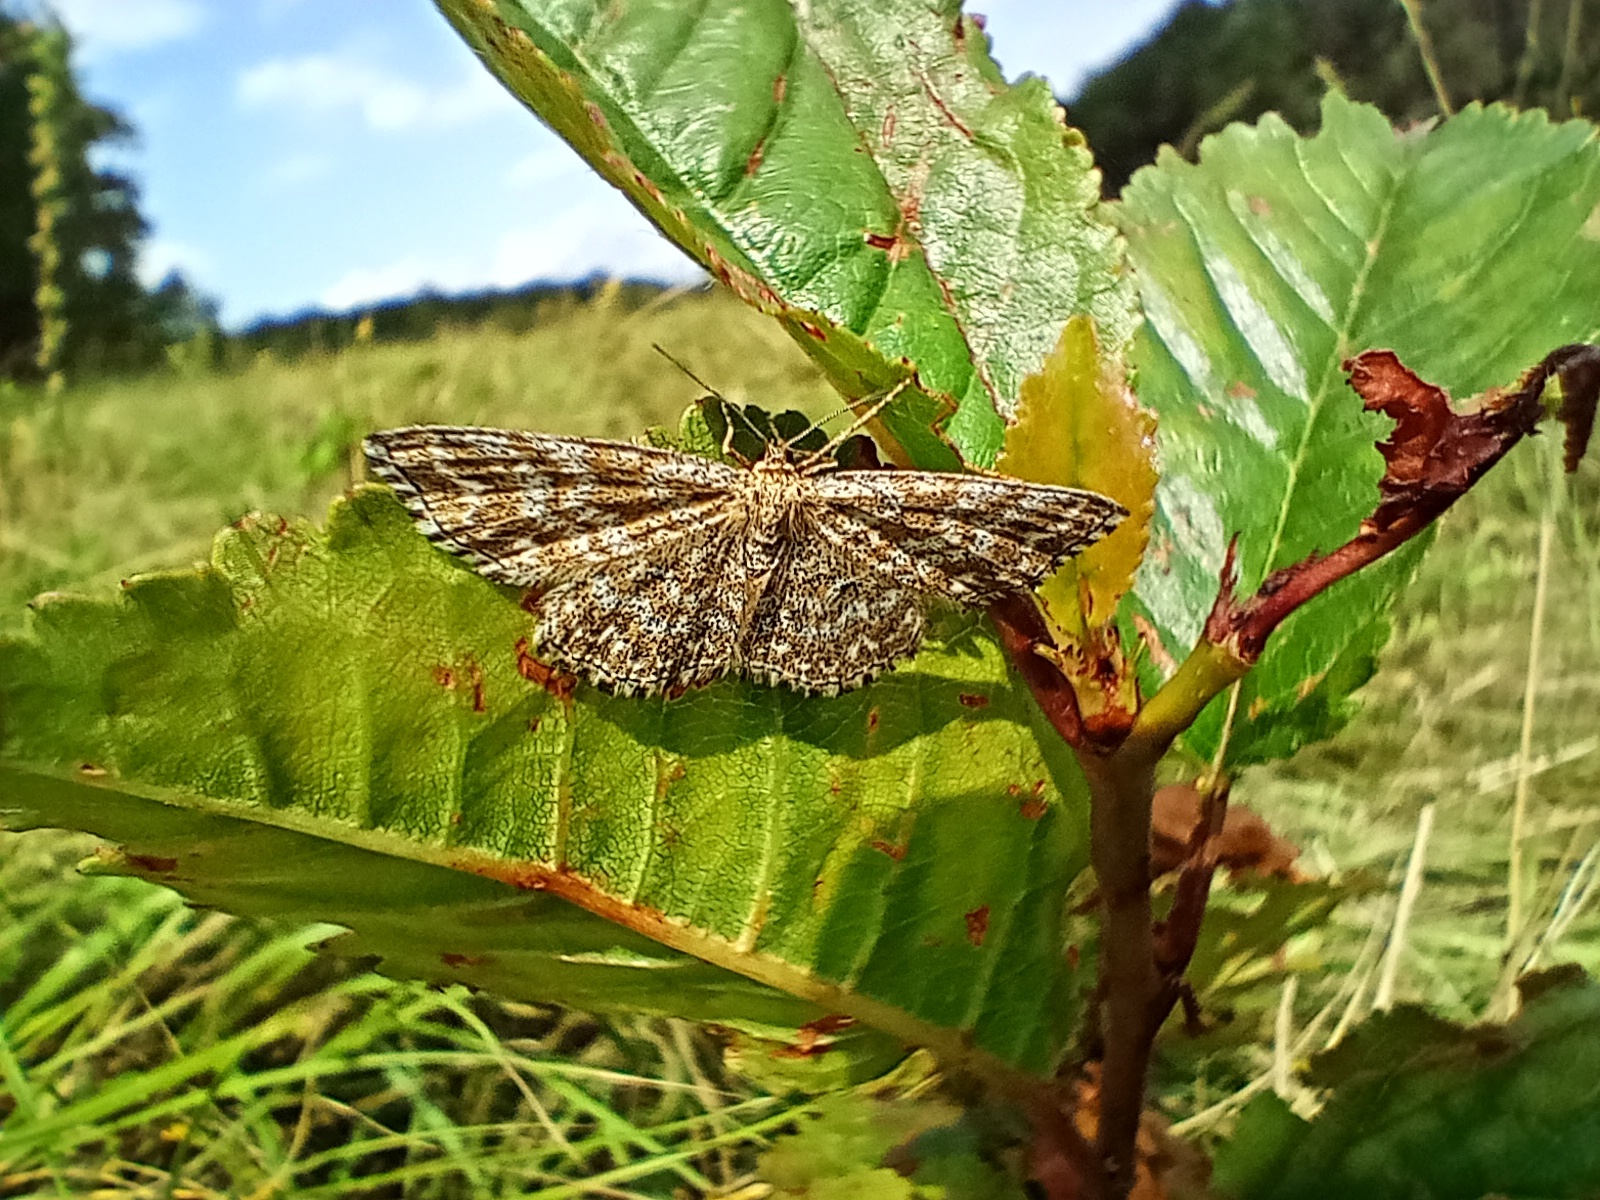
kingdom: Animalia
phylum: Arthropoda
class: Insecta
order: Lepidoptera
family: Geometridae
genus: Scopula
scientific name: Scopula immorata
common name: Lewes wave
